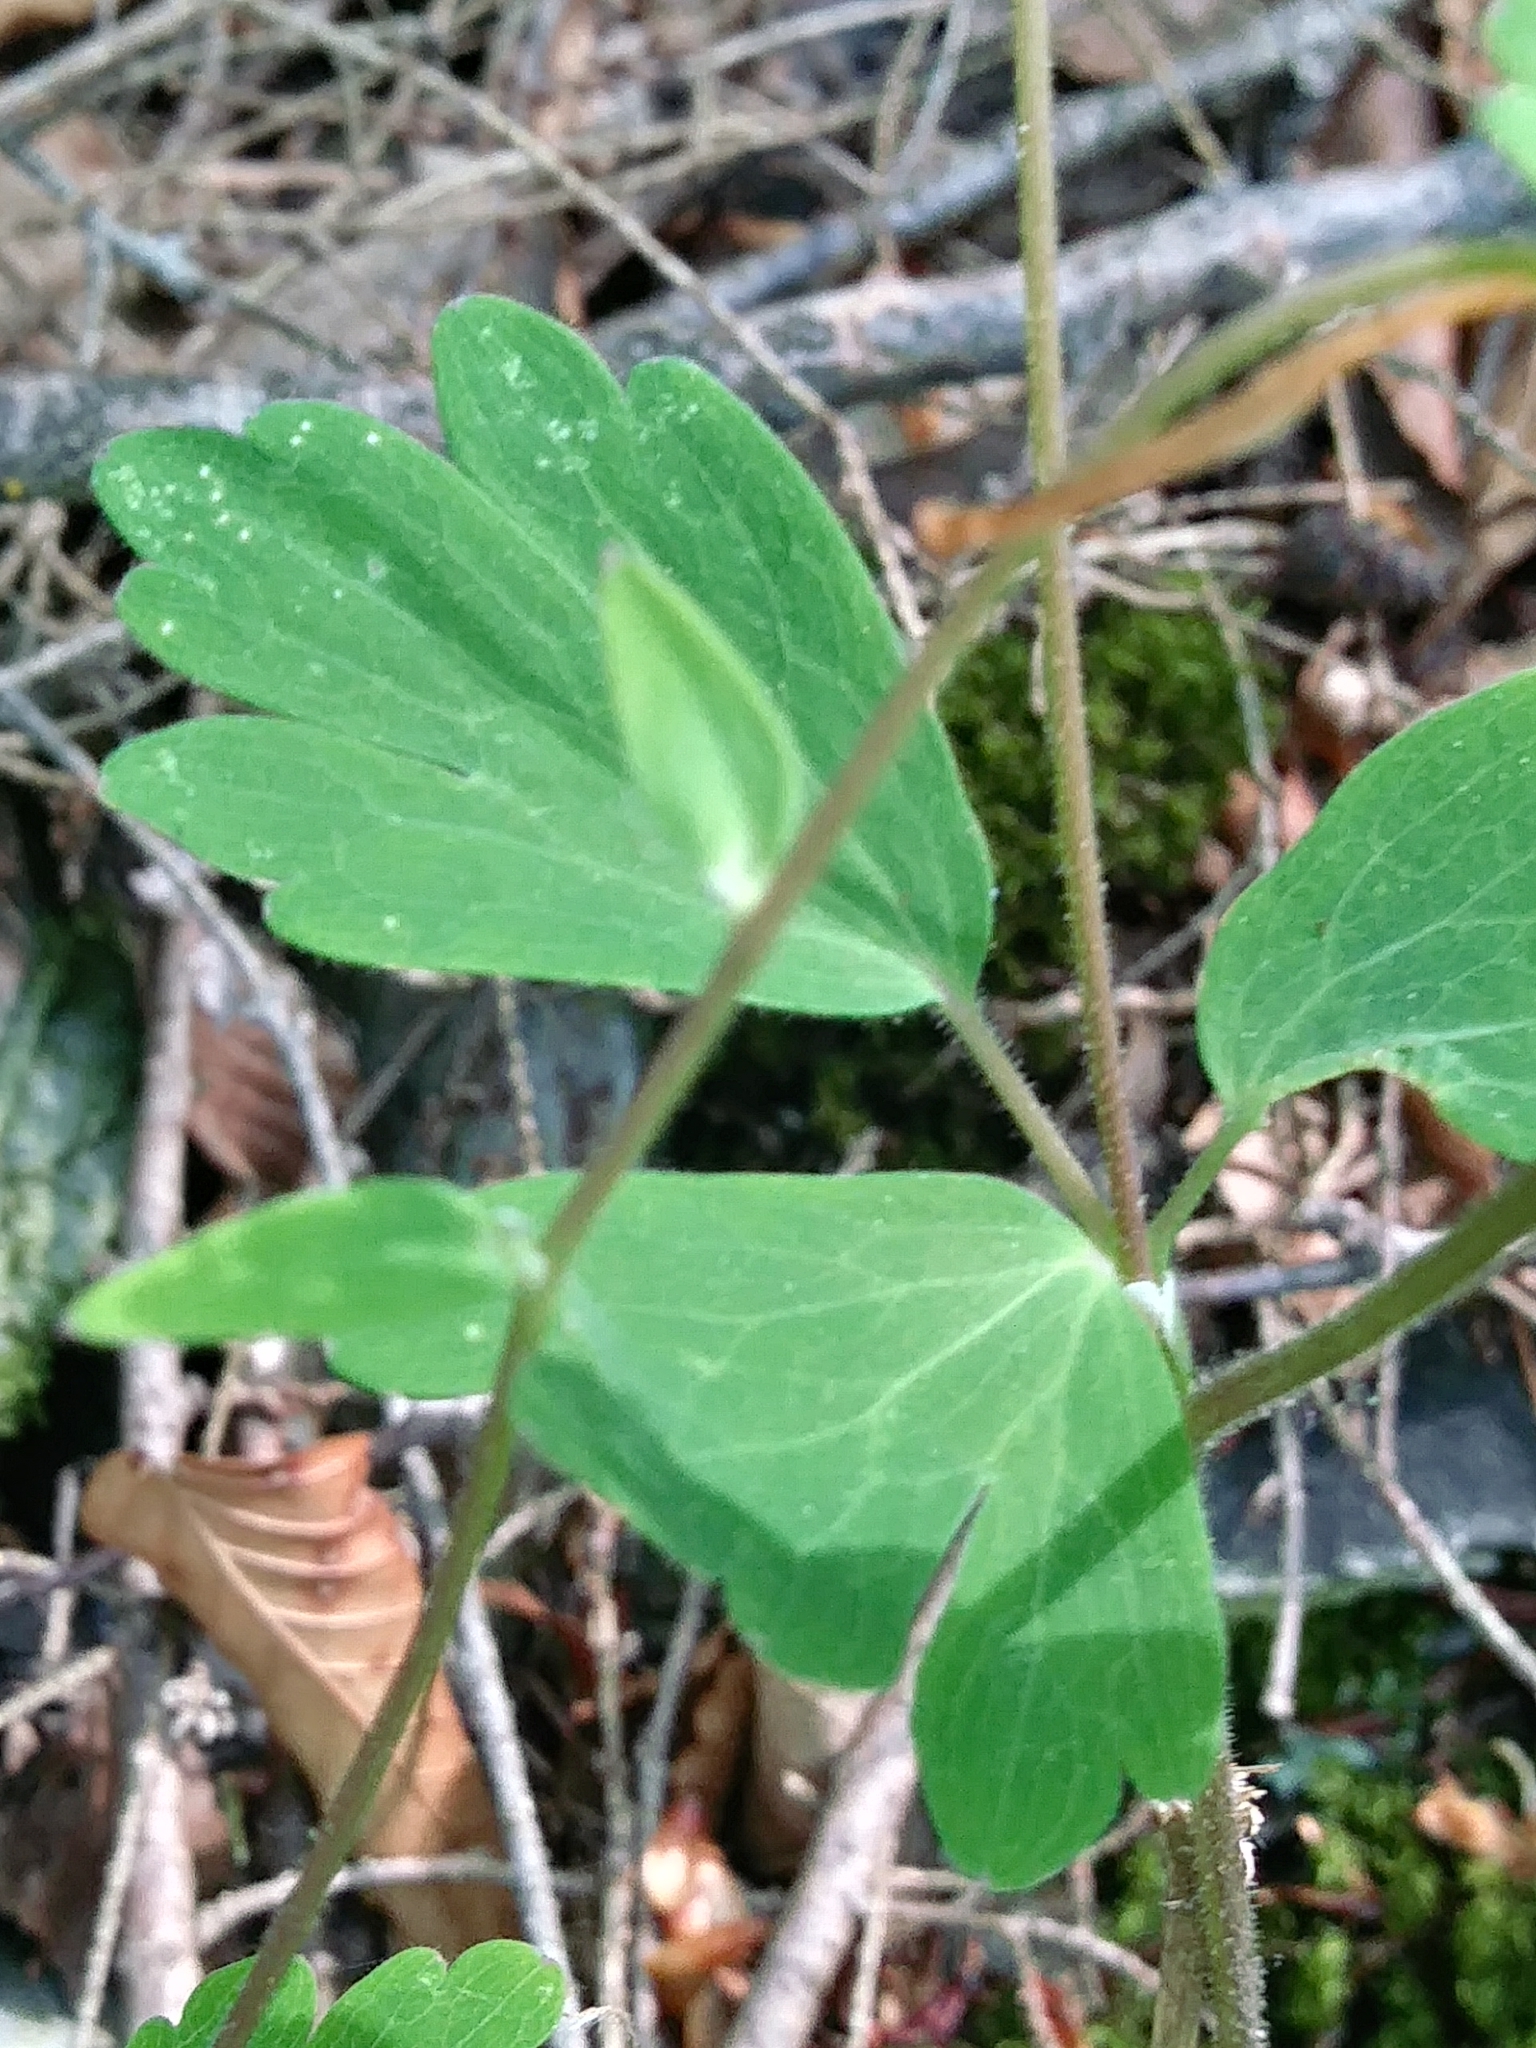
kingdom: Plantae
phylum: Tracheophyta
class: Magnoliopsida
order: Ranunculales
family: Ranunculaceae
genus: Aquilegia
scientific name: Aquilegia canadensis
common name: American columbine
